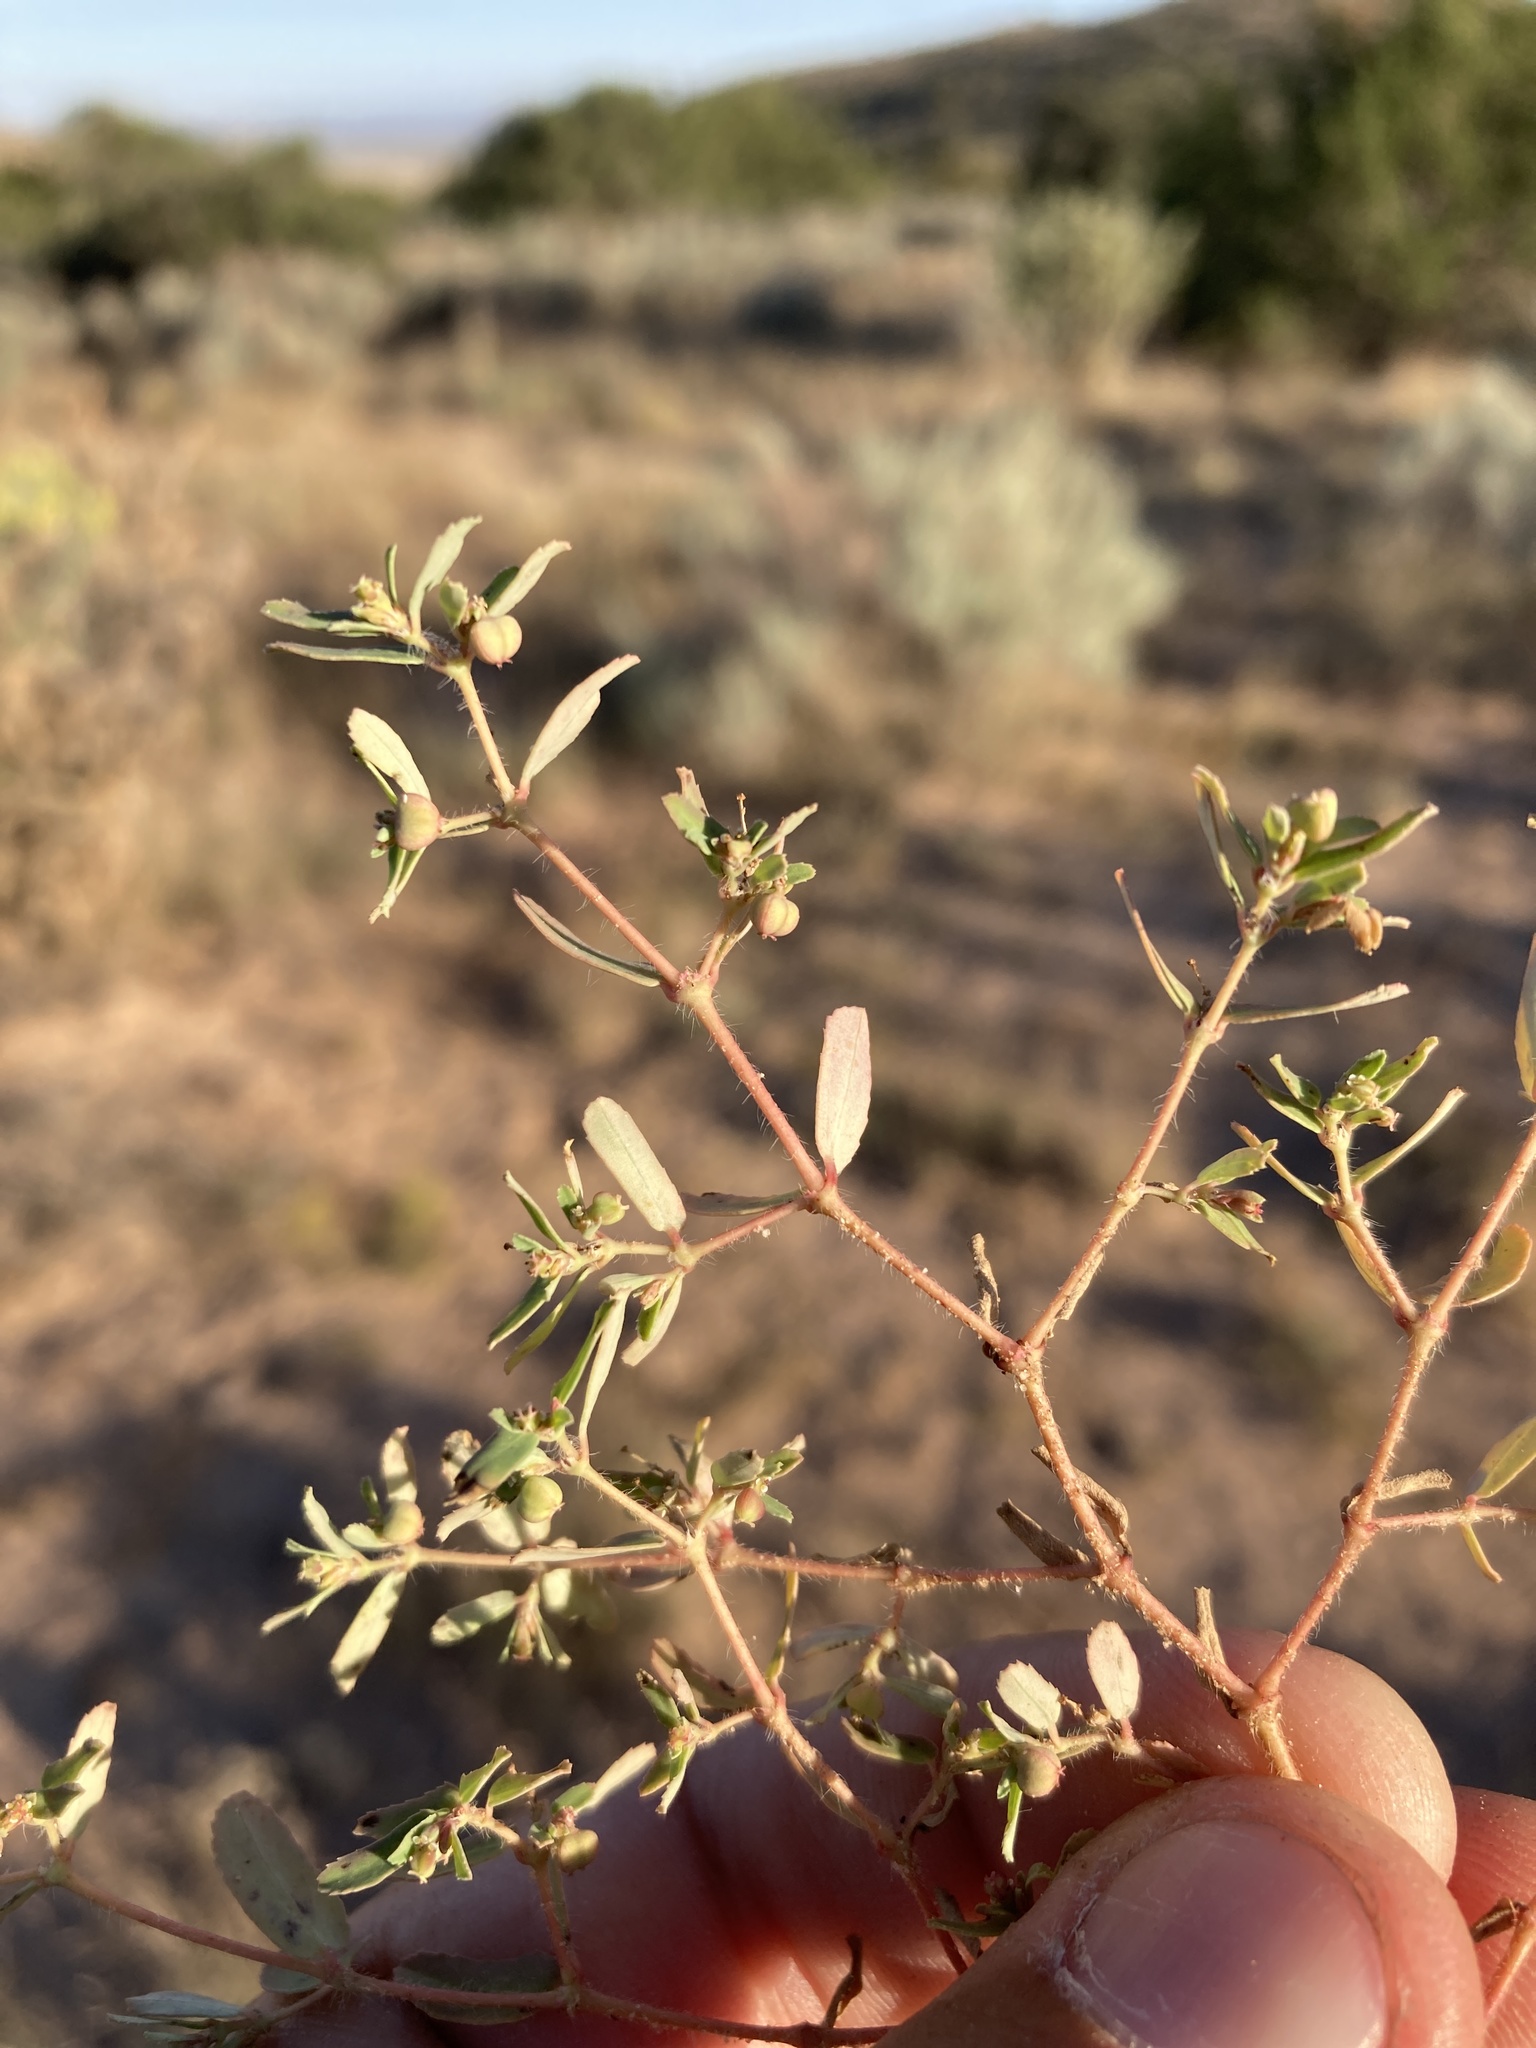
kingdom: Plantae
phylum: Tracheophyta
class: Magnoliopsida
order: Malpighiales
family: Euphorbiaceae
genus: Euphorbia
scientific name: Euphorbia serrula
